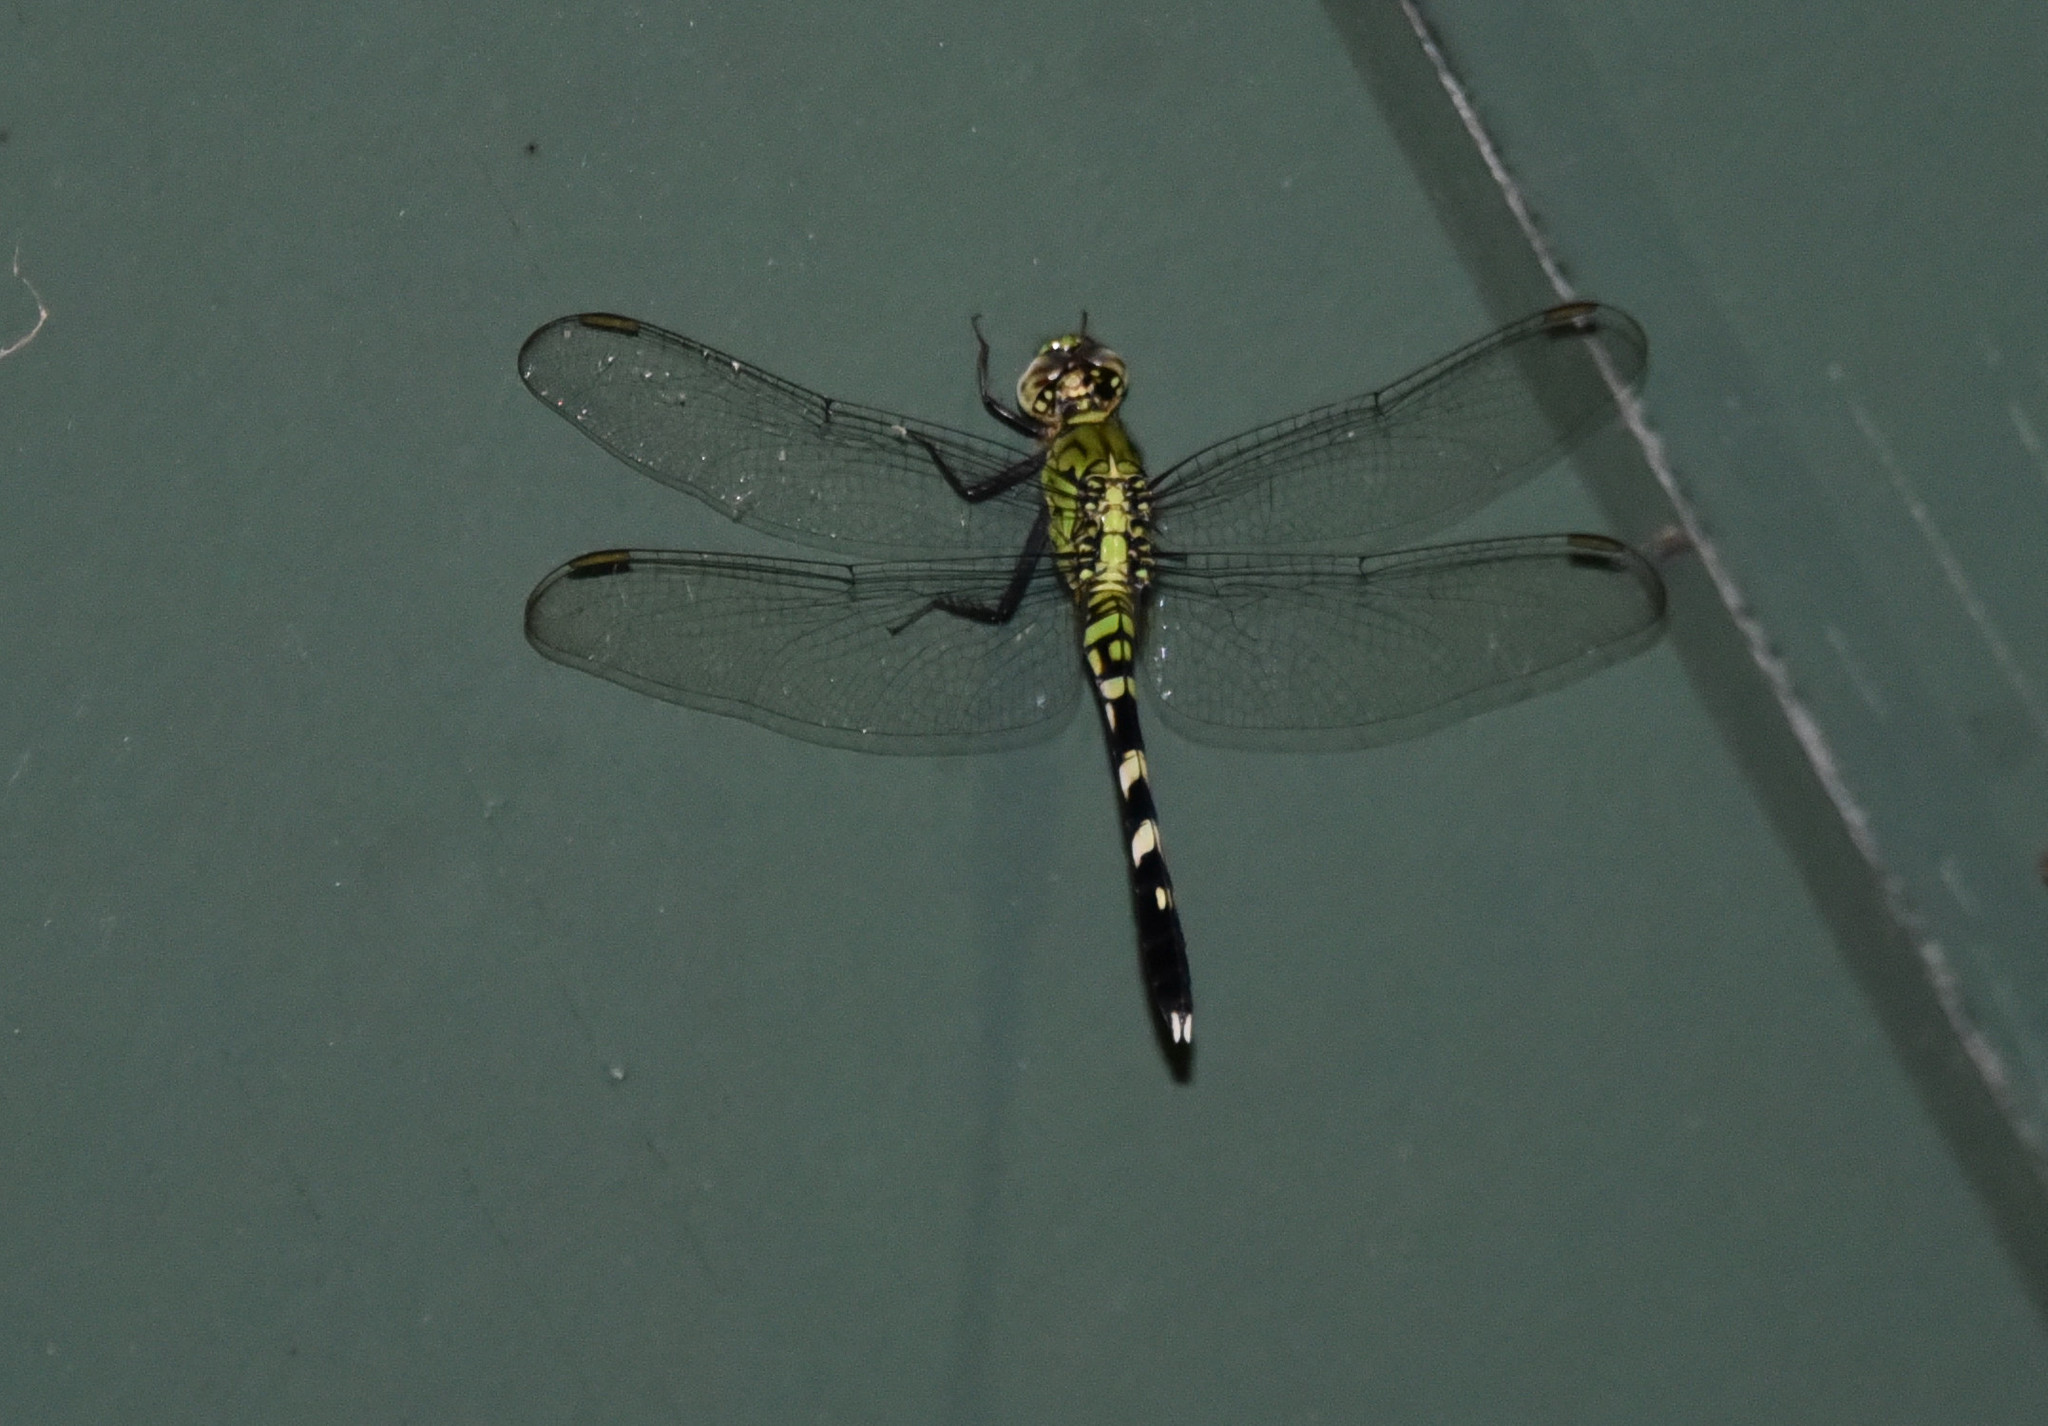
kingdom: Animalia
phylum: Arthropoda
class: Insecta
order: Odonata
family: Libellulidae
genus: Erythemis
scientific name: Erythemis simplicicollis
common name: Eastern pondhawk
